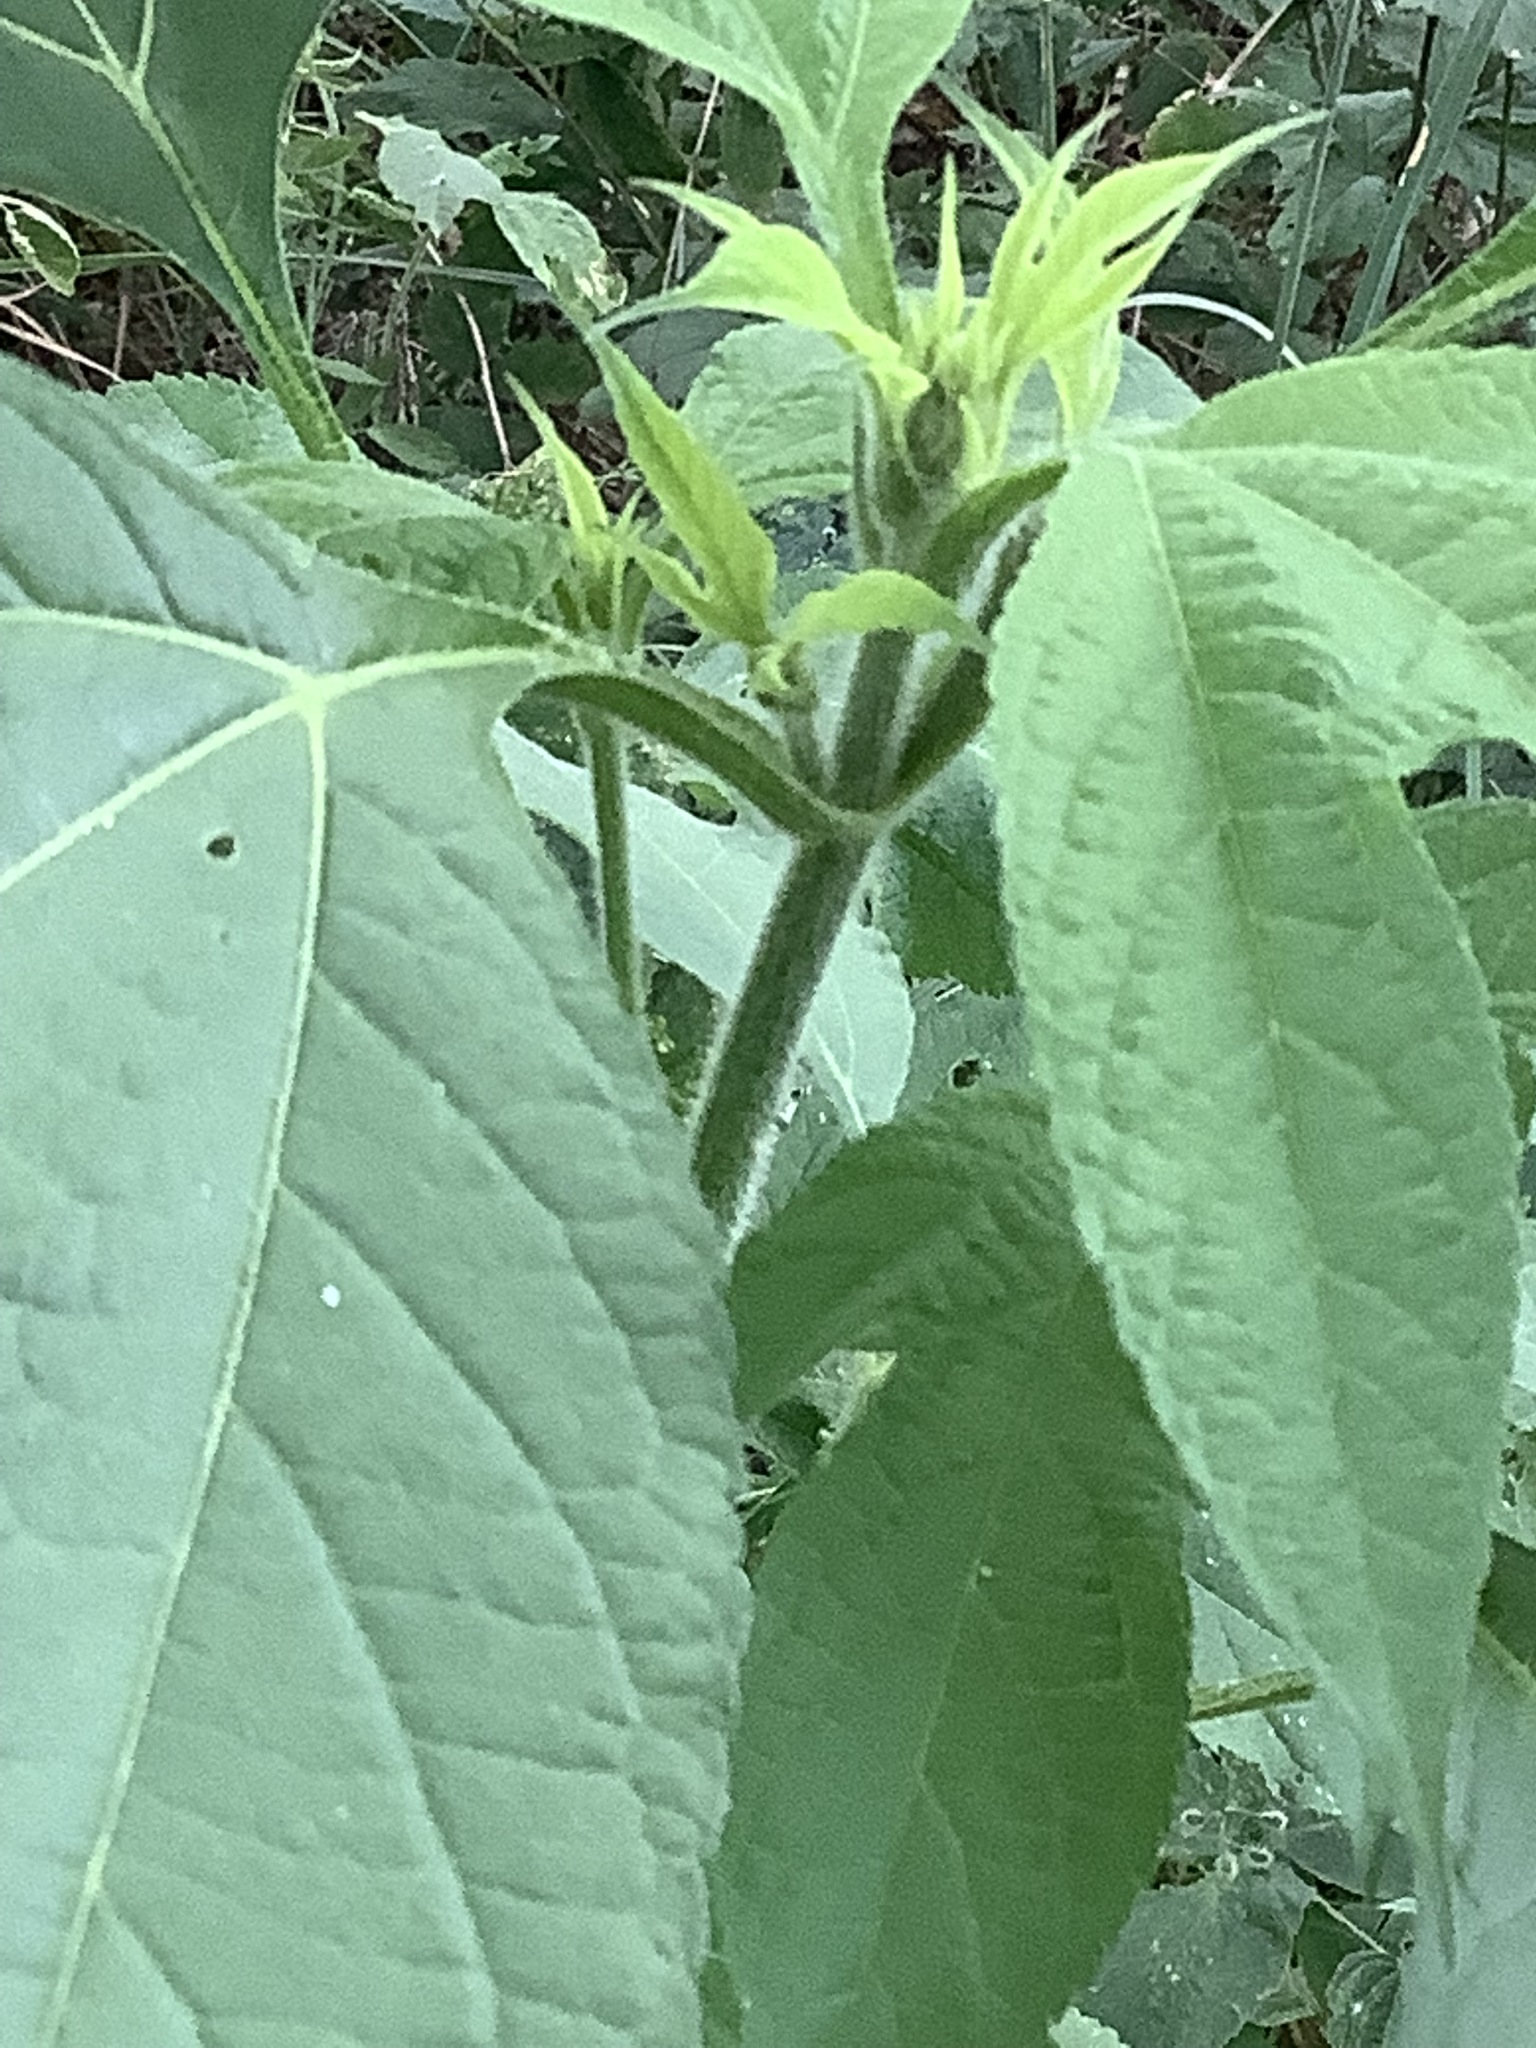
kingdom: Plantae
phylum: Tracheophyta
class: Magnoliopsida
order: Asterales
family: Asteraceae
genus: Ambrosia
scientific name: Ambrosia trifida
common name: Giant ragweed
